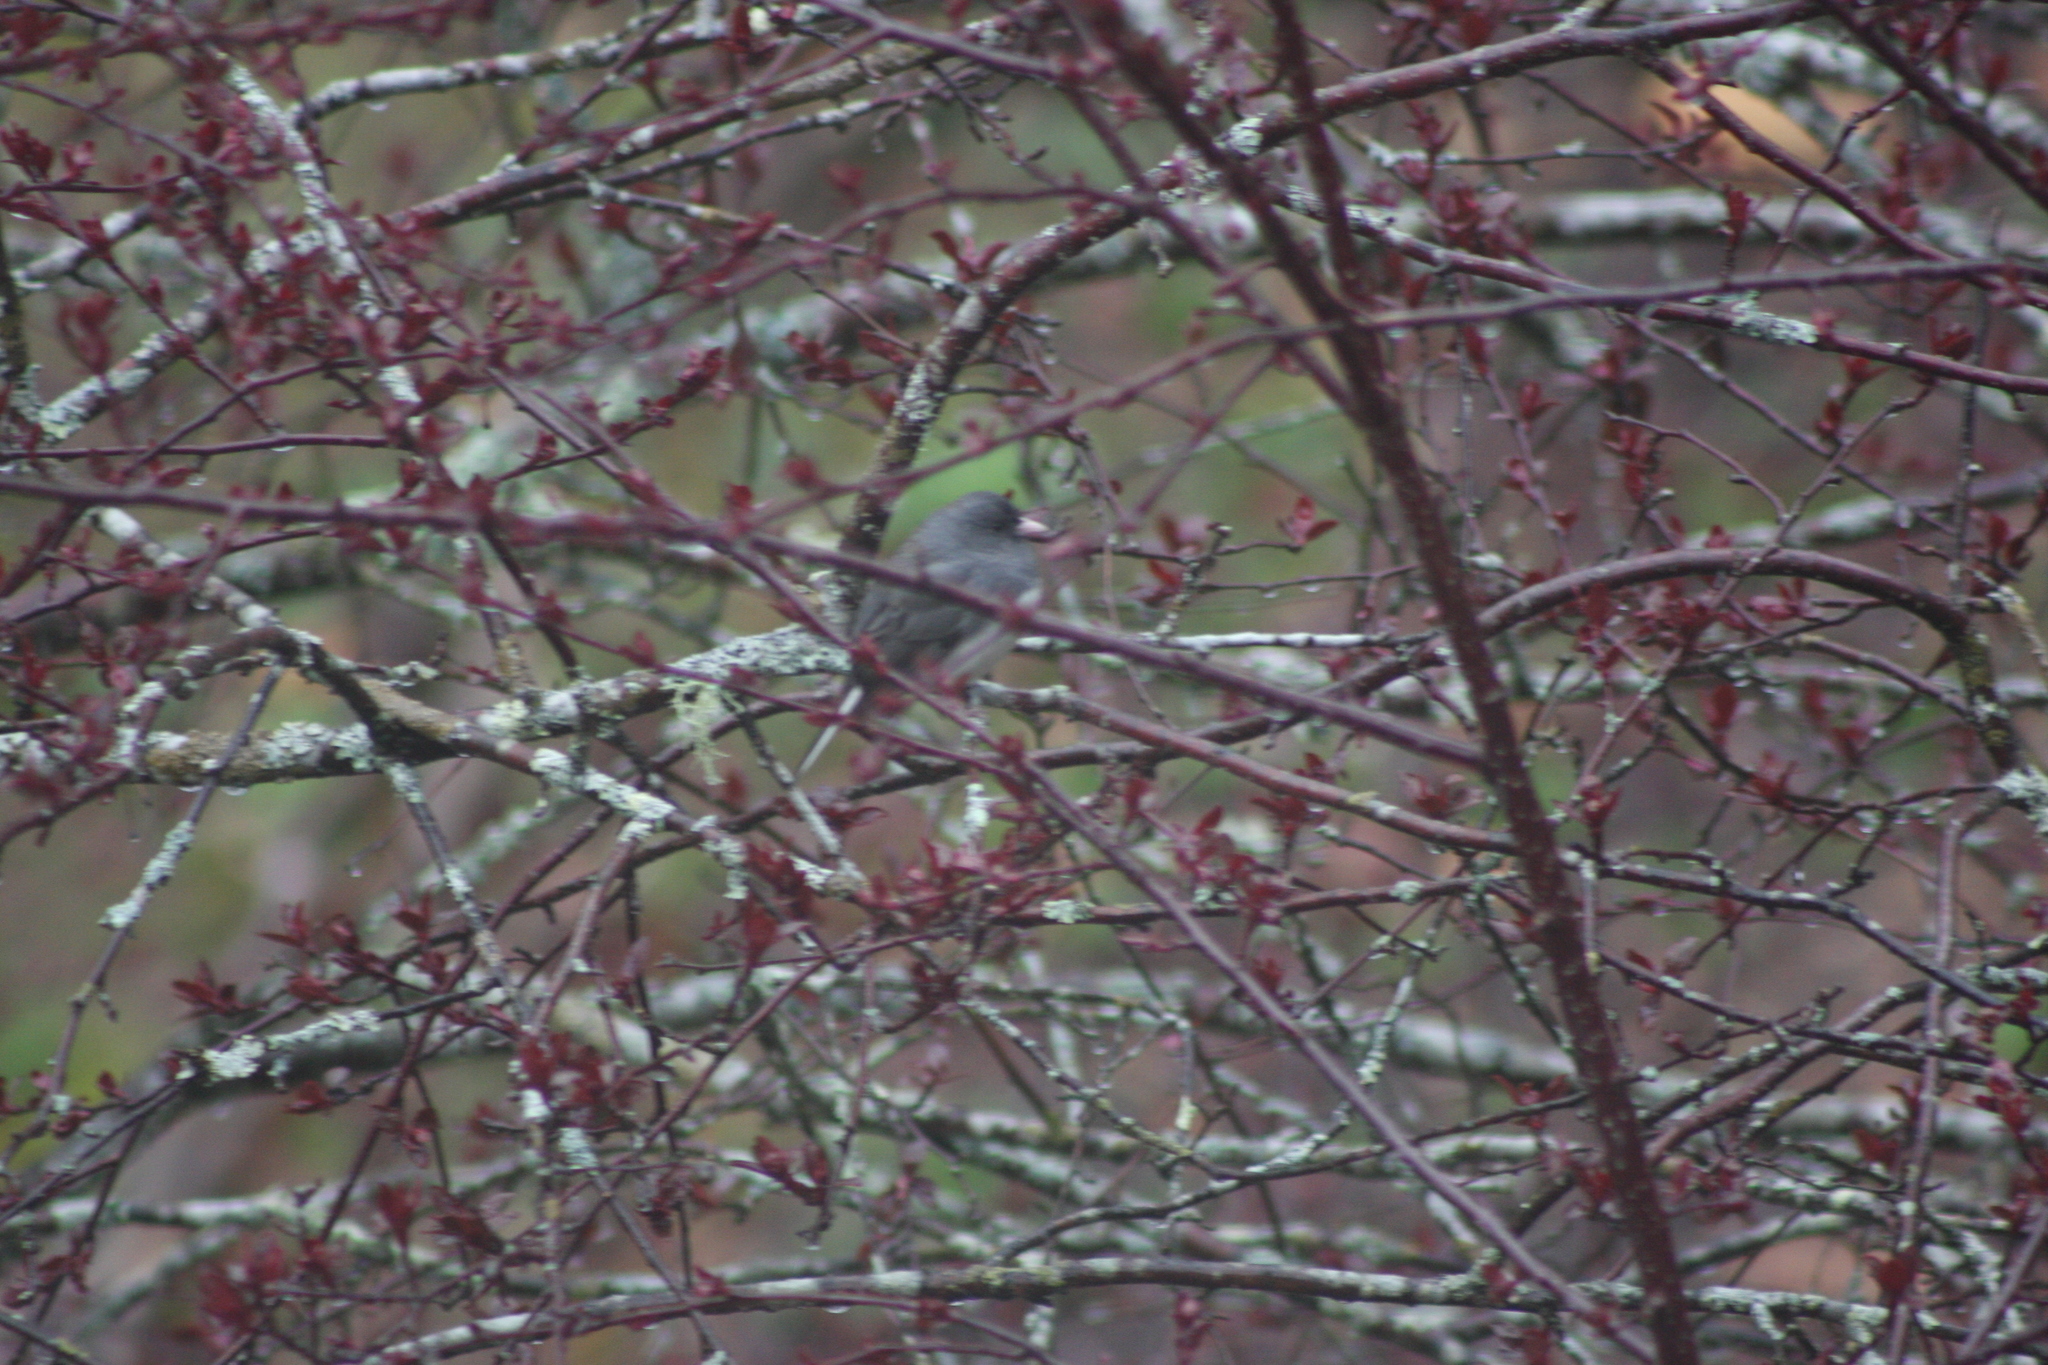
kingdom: Animalia
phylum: Chordata
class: Aves
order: Passeriformes
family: Passerellidae
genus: Junco
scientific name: Junco hyemalis
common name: Dark-eyed junco
